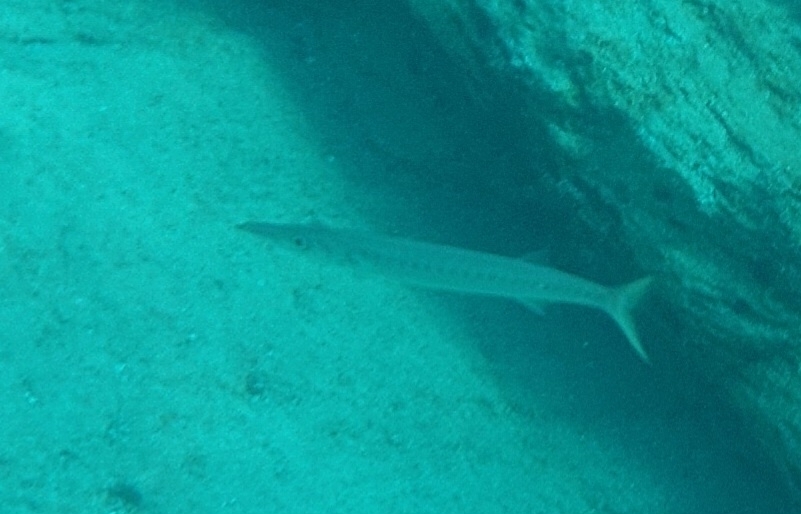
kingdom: Animalia
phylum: Chordata
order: Perciformes
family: Sphyraenidae
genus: Sphyraena
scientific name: Sphyraena viridensis
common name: Yellowmouth barracuda
